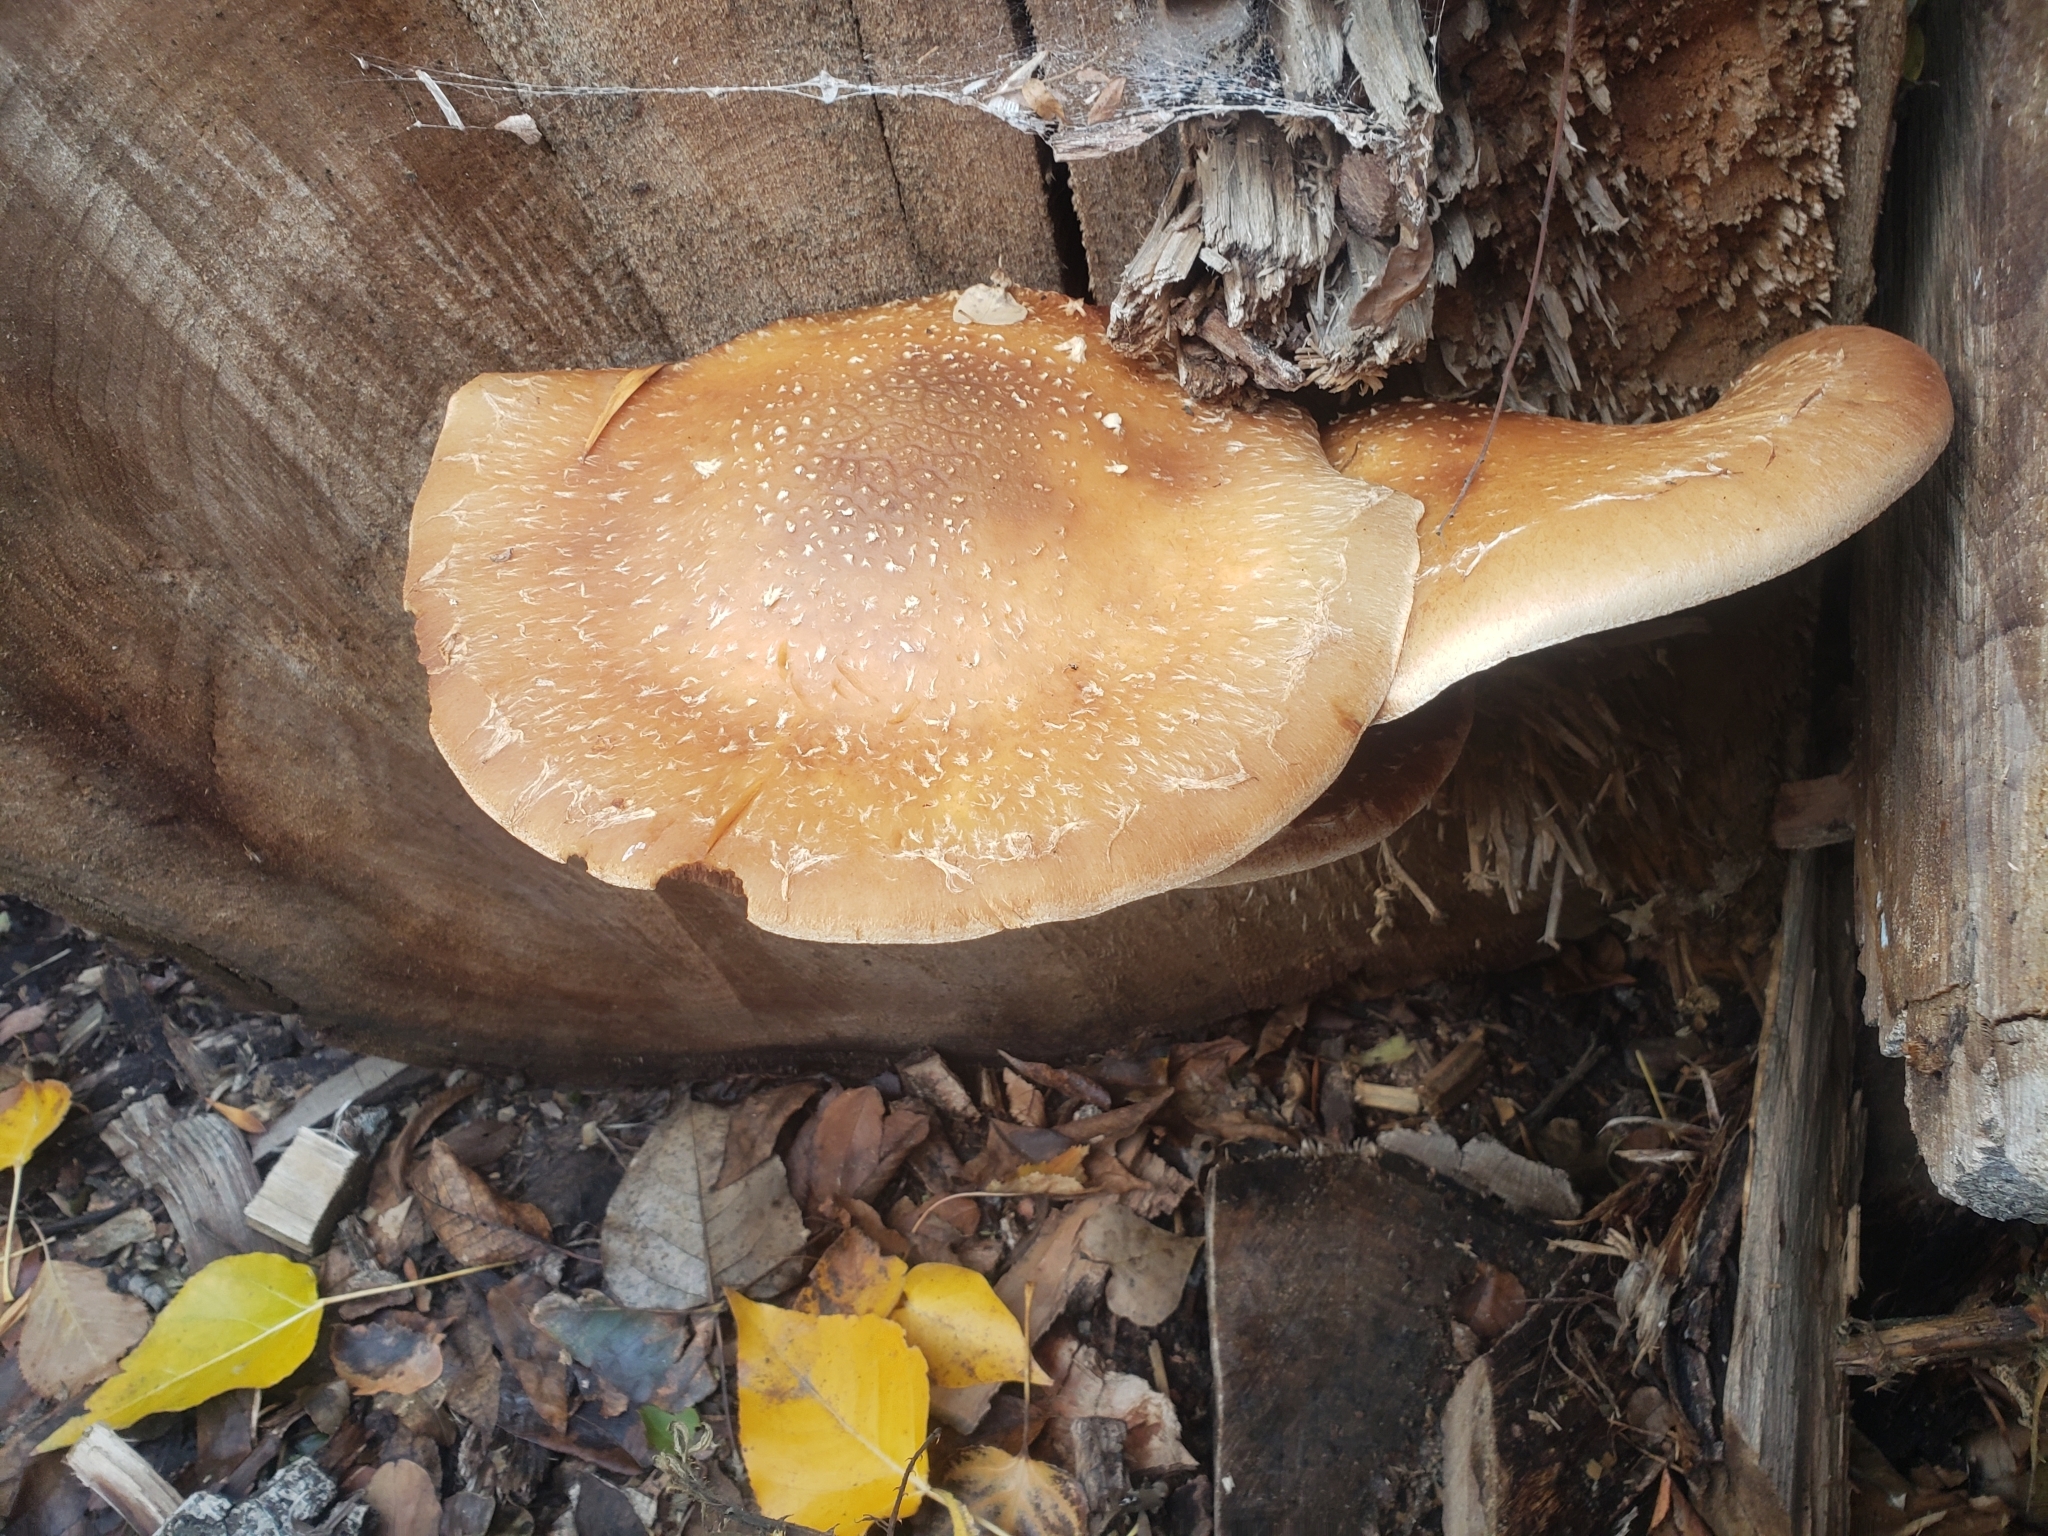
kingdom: Fungi
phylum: Basidiomycota
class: Agaricomycetes
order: Agaricales
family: Strophariaceae
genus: Pholiota
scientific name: Pholiota populnea
